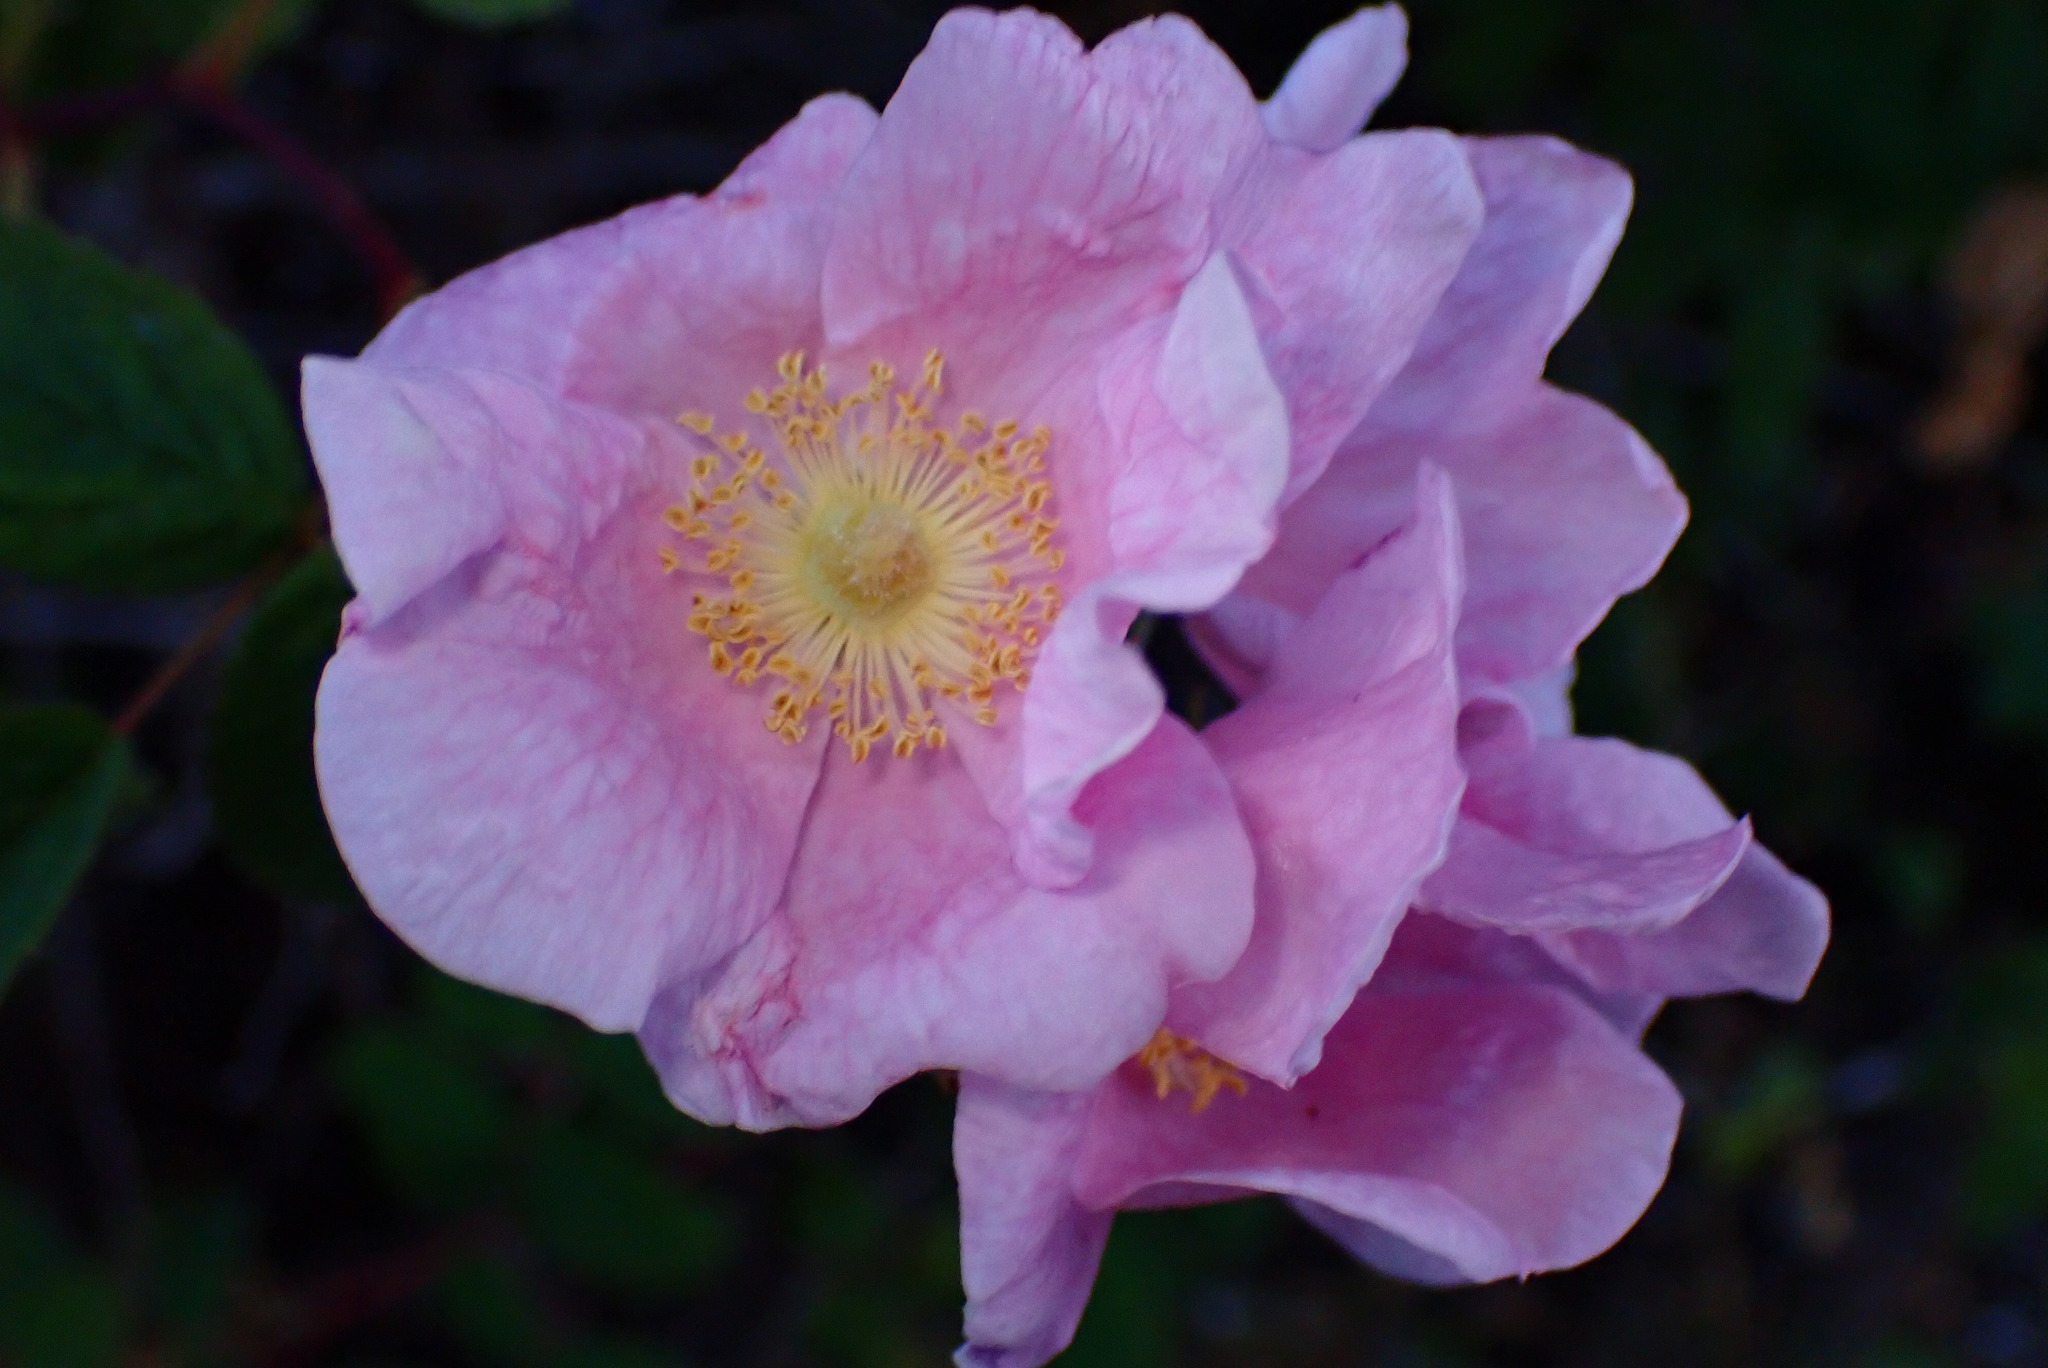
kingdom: Plantae
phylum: Tracheophyta
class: Magnoliopsida
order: Rosales
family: Rosaceae
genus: Rosa
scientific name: Rosa californica
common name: California rose
